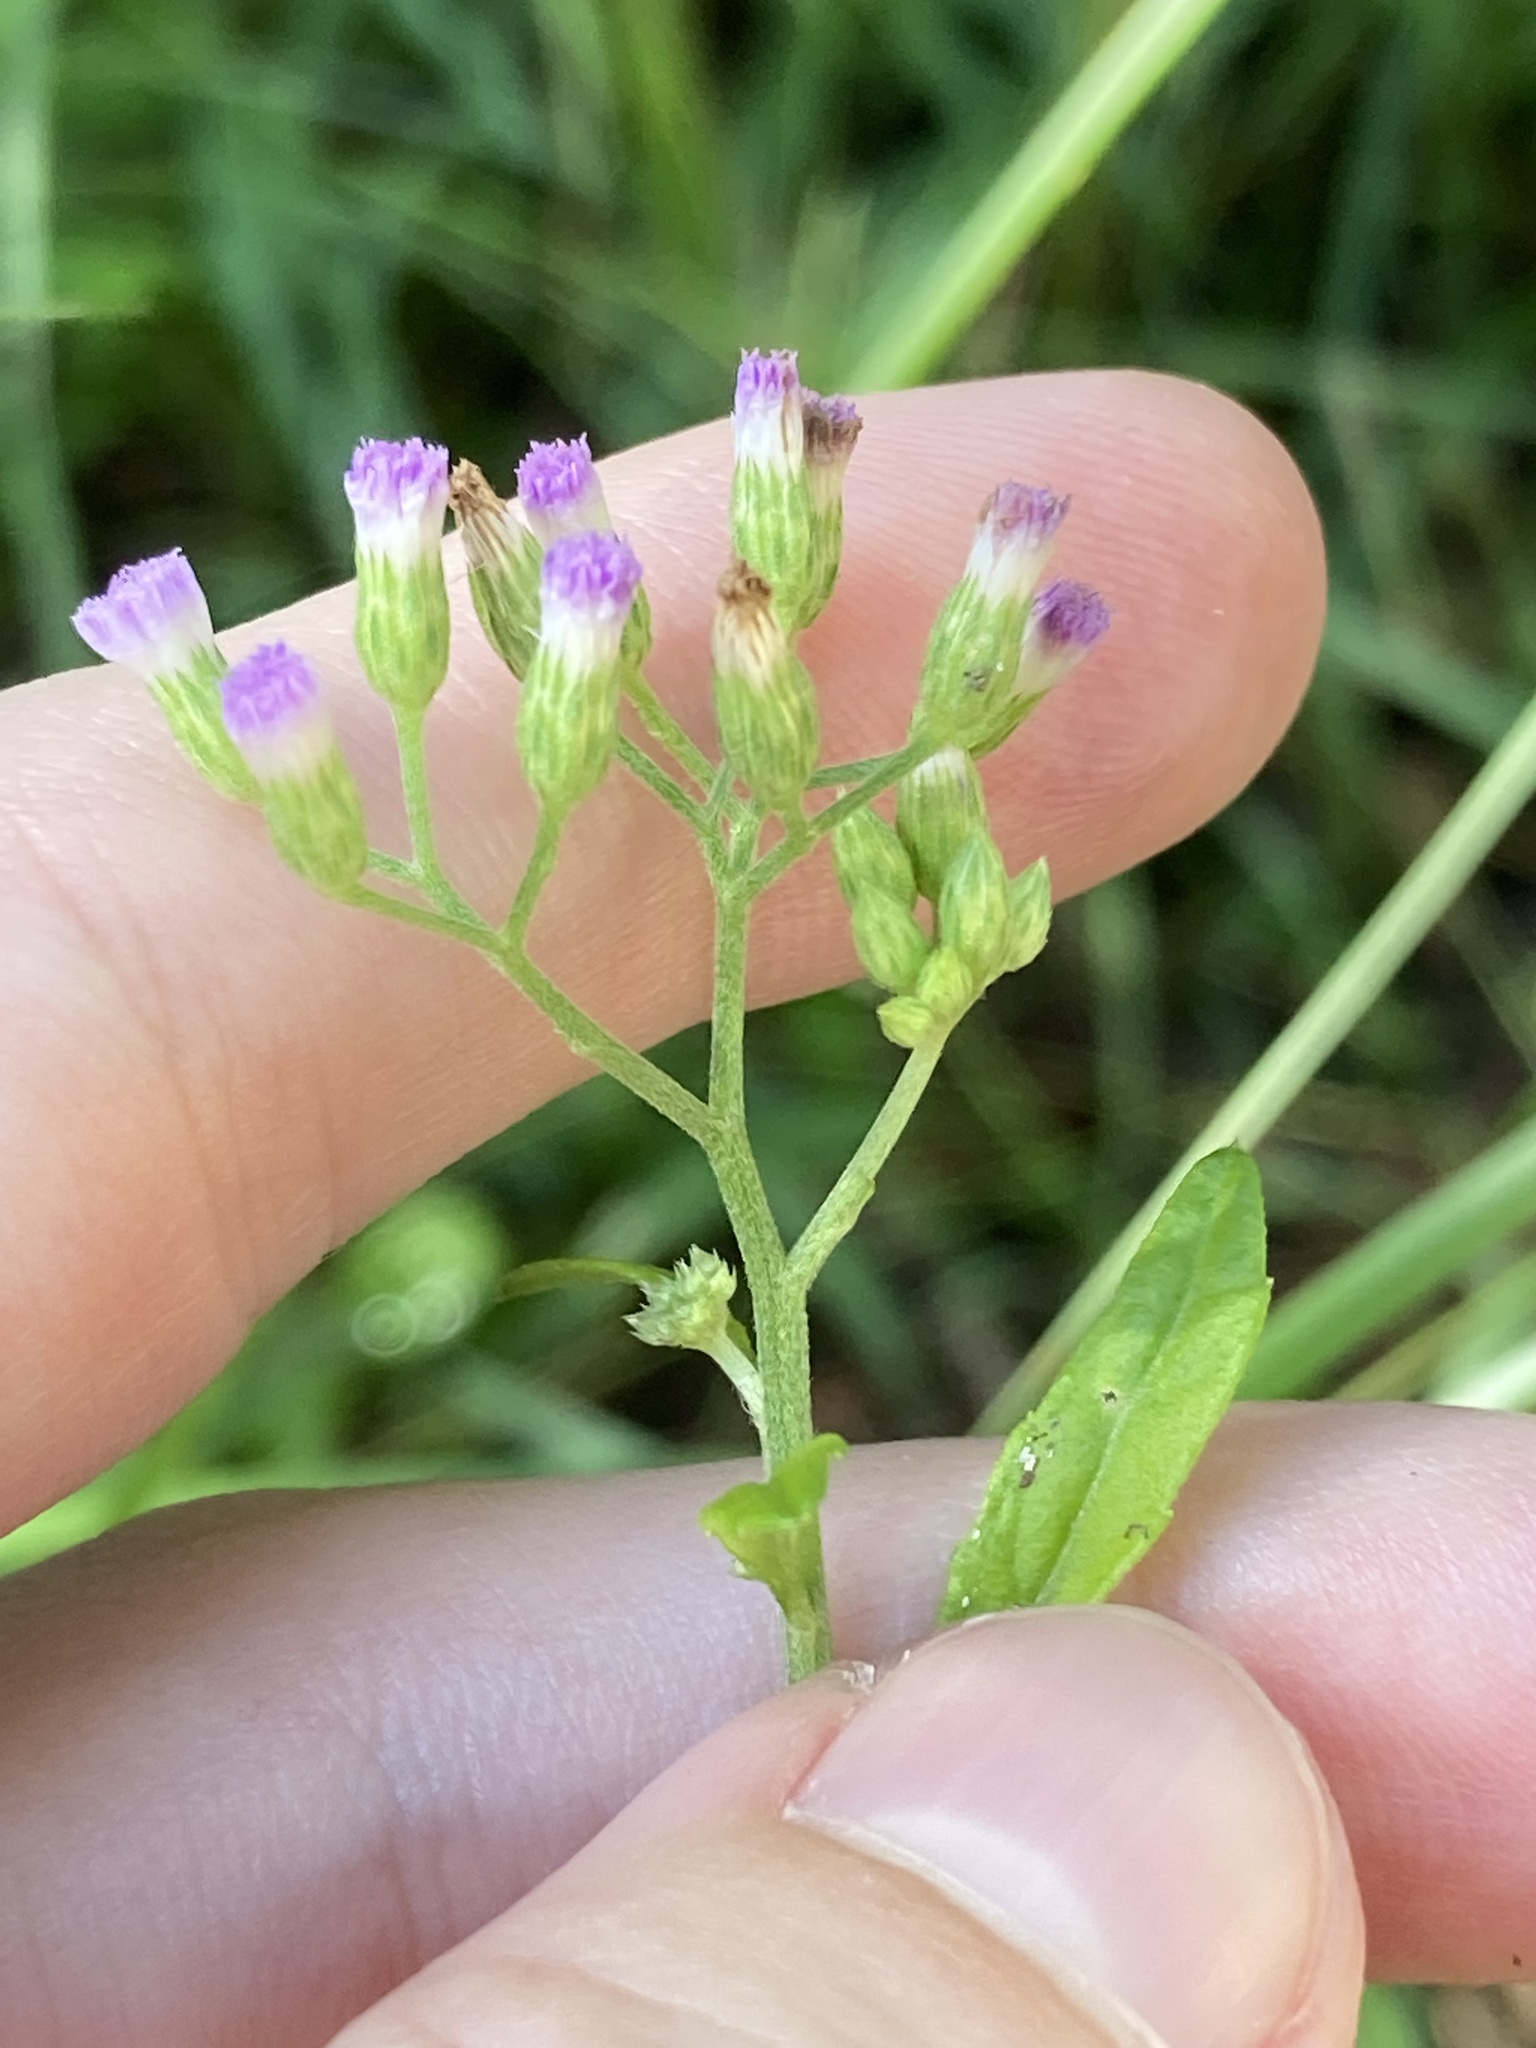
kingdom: Plantae
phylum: Tracheophyta
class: Magnoliopsida
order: Asterales
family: Asteraceae
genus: Cyanthillium
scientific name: Cyanthillium cinereum
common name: Little ironweed
